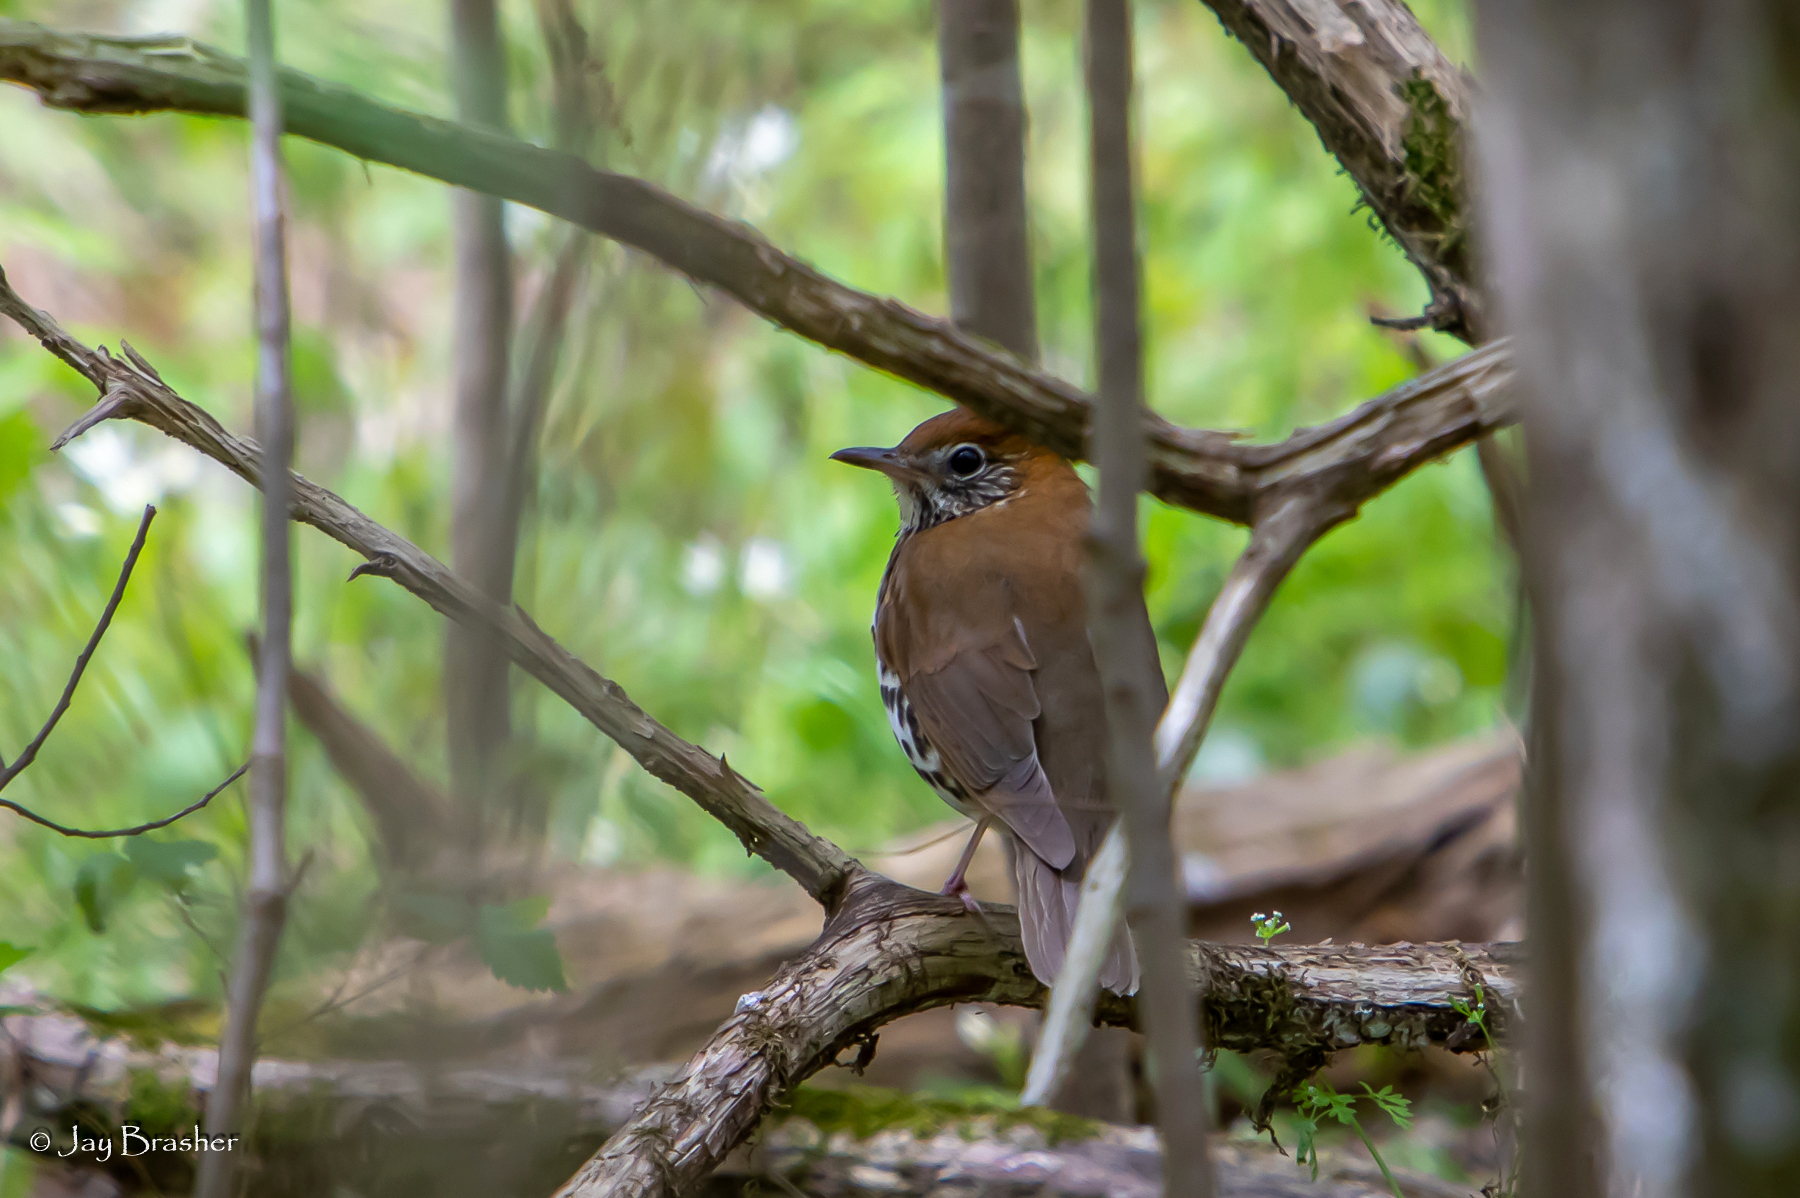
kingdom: Animalia
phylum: Chordata
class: Aves
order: Passeriformes
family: Turdidae
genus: Hylocichla
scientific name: Hylocichla mustelina
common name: Wood thrush
